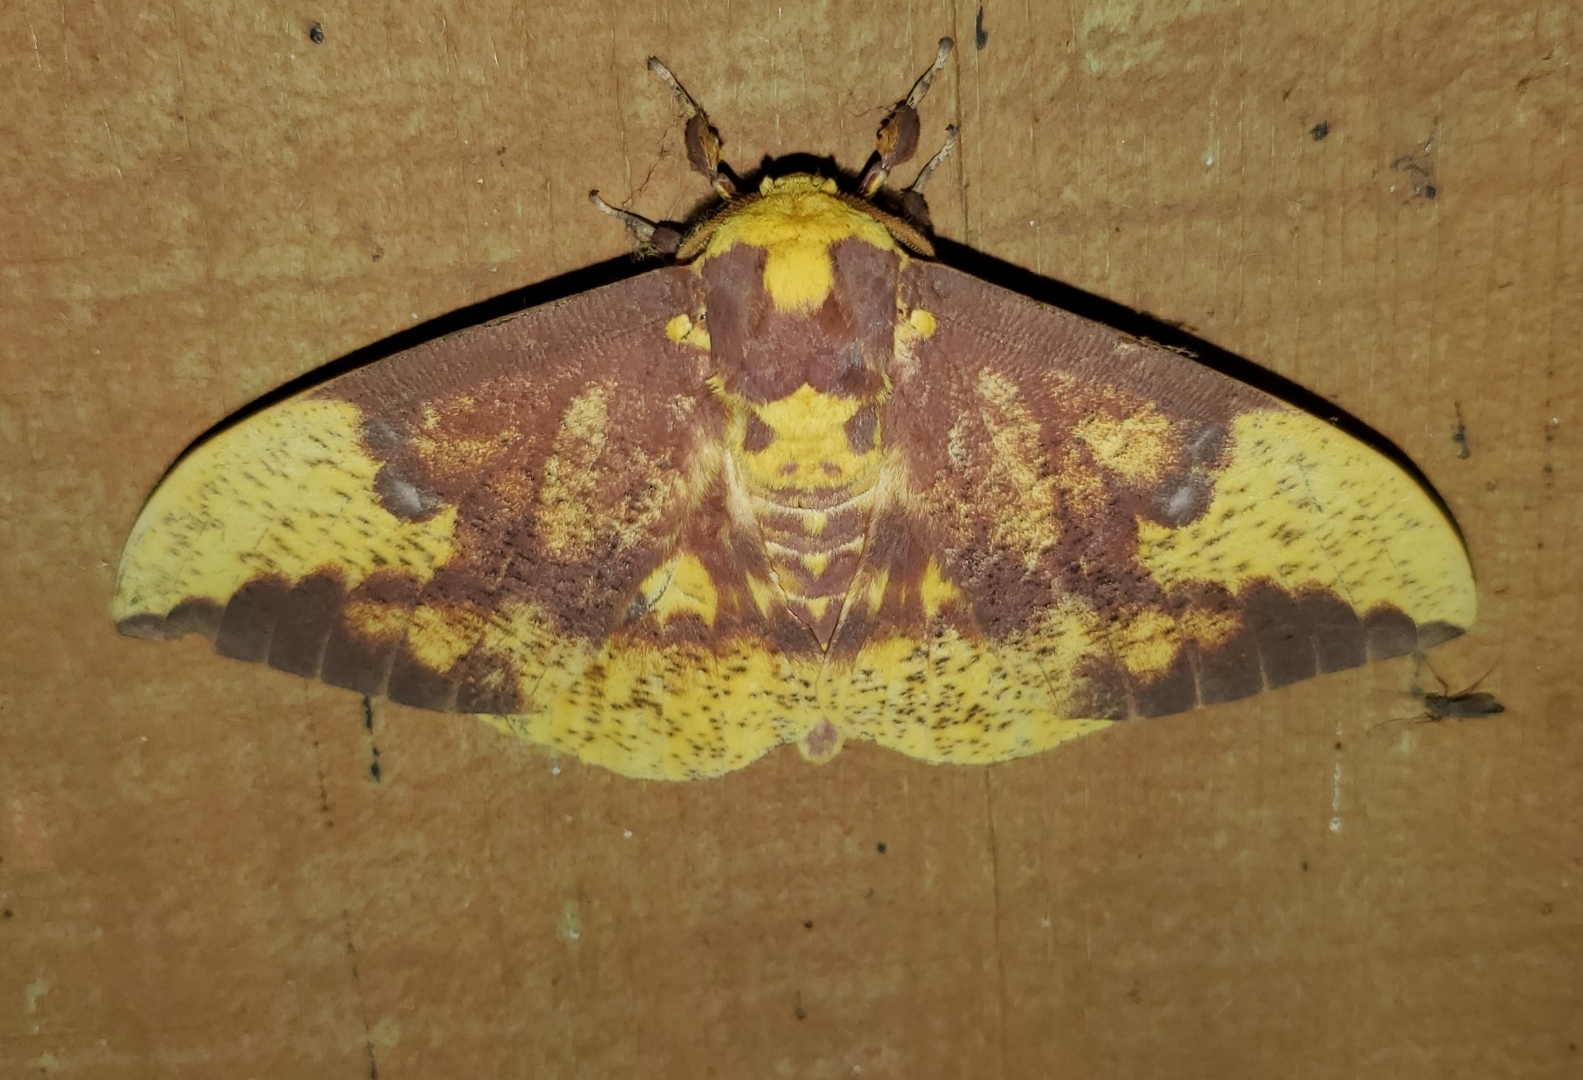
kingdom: Animalia
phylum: Arthropoda
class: Insecta
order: Lepidoptera
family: Saturniidae
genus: Eacles
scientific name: Eacles imperialis
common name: Imperial moth
